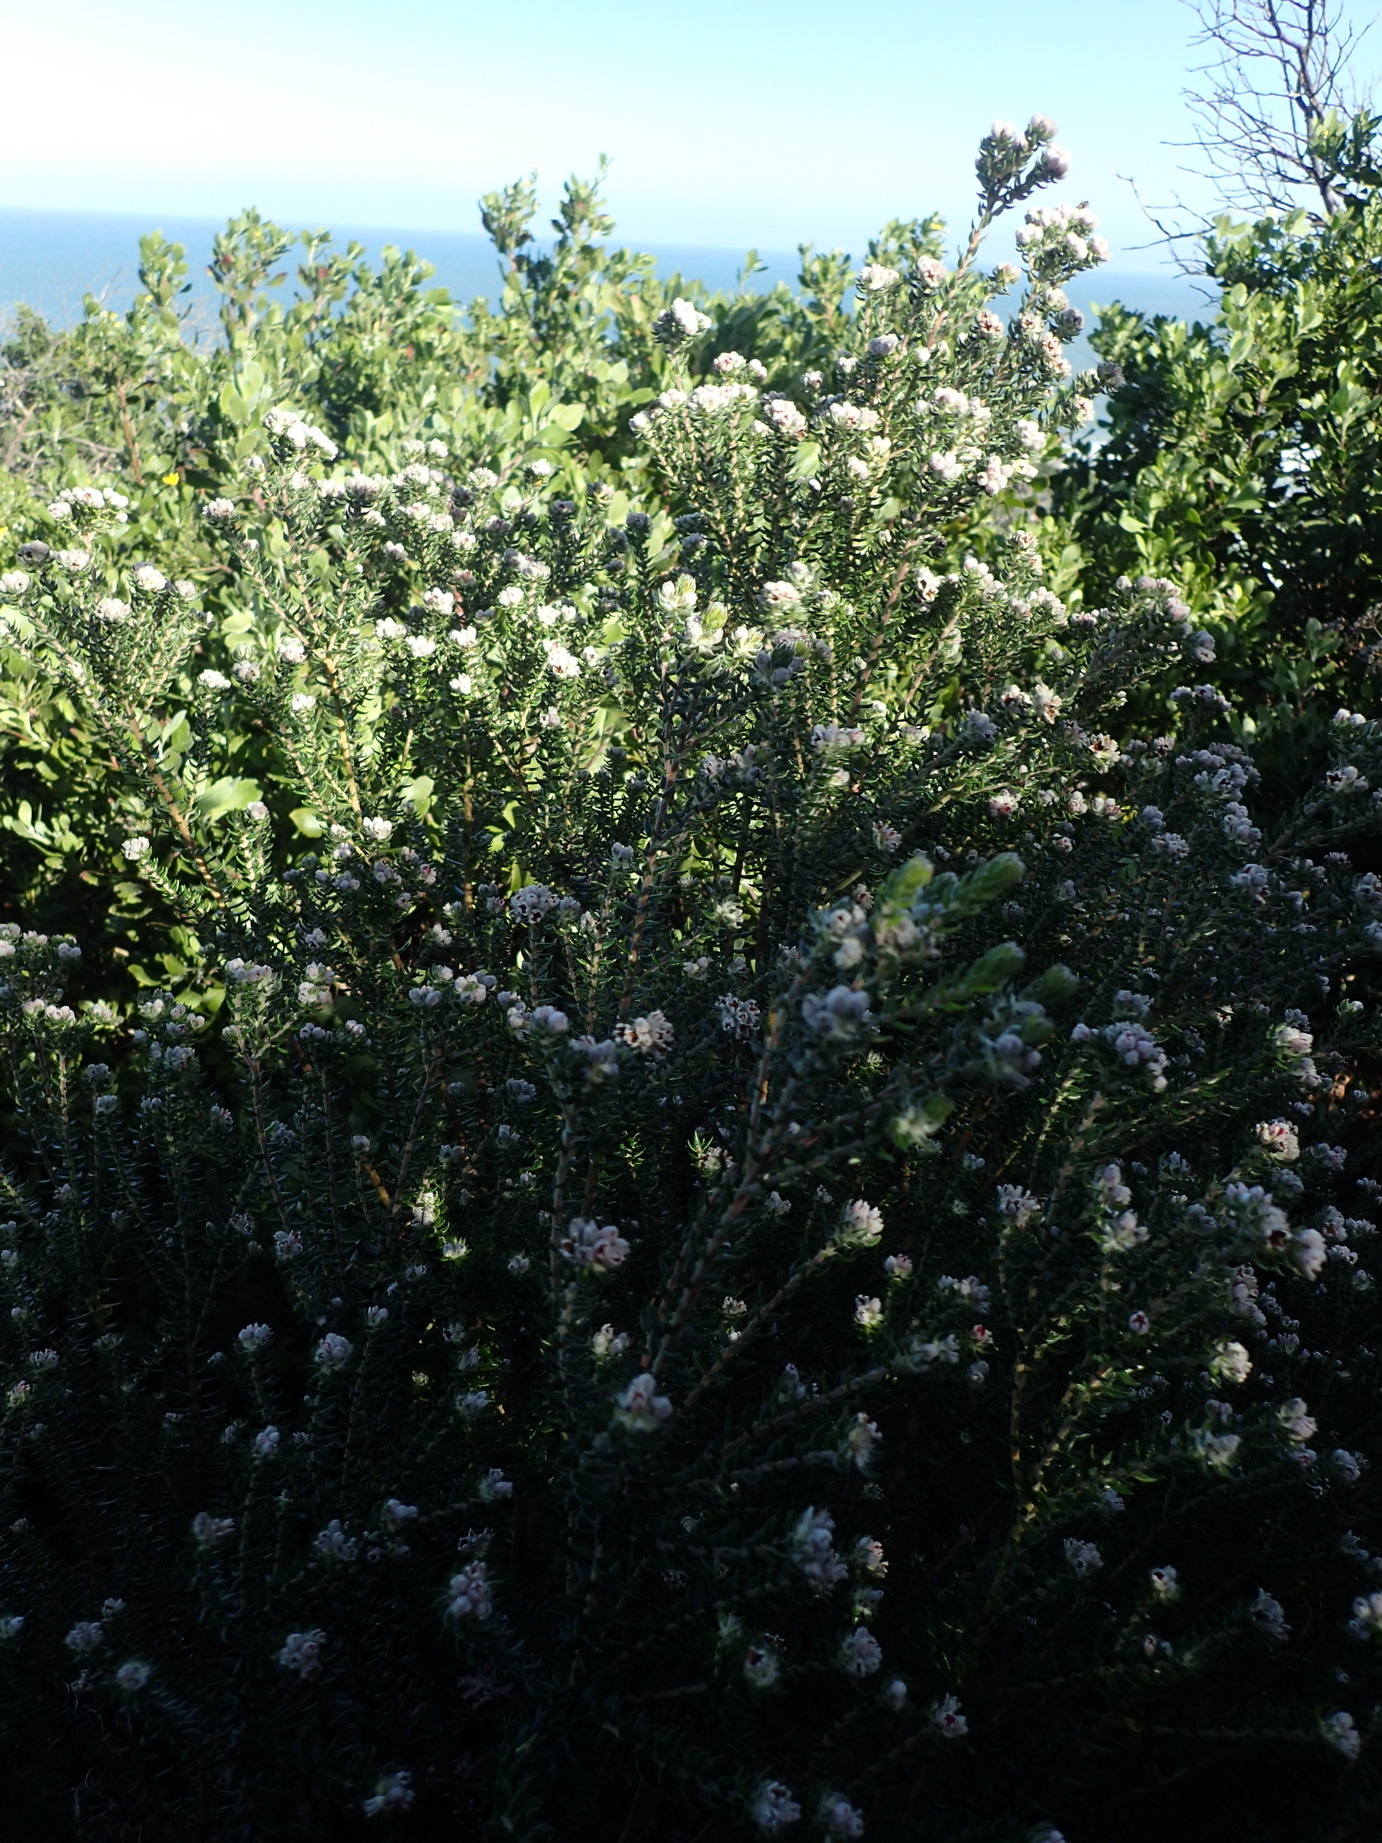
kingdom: Plantae
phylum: Tracheophyta
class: Magnoliopsida
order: Rosales
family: Rhamnaceae
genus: Phylica
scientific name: Phylica purpurea
